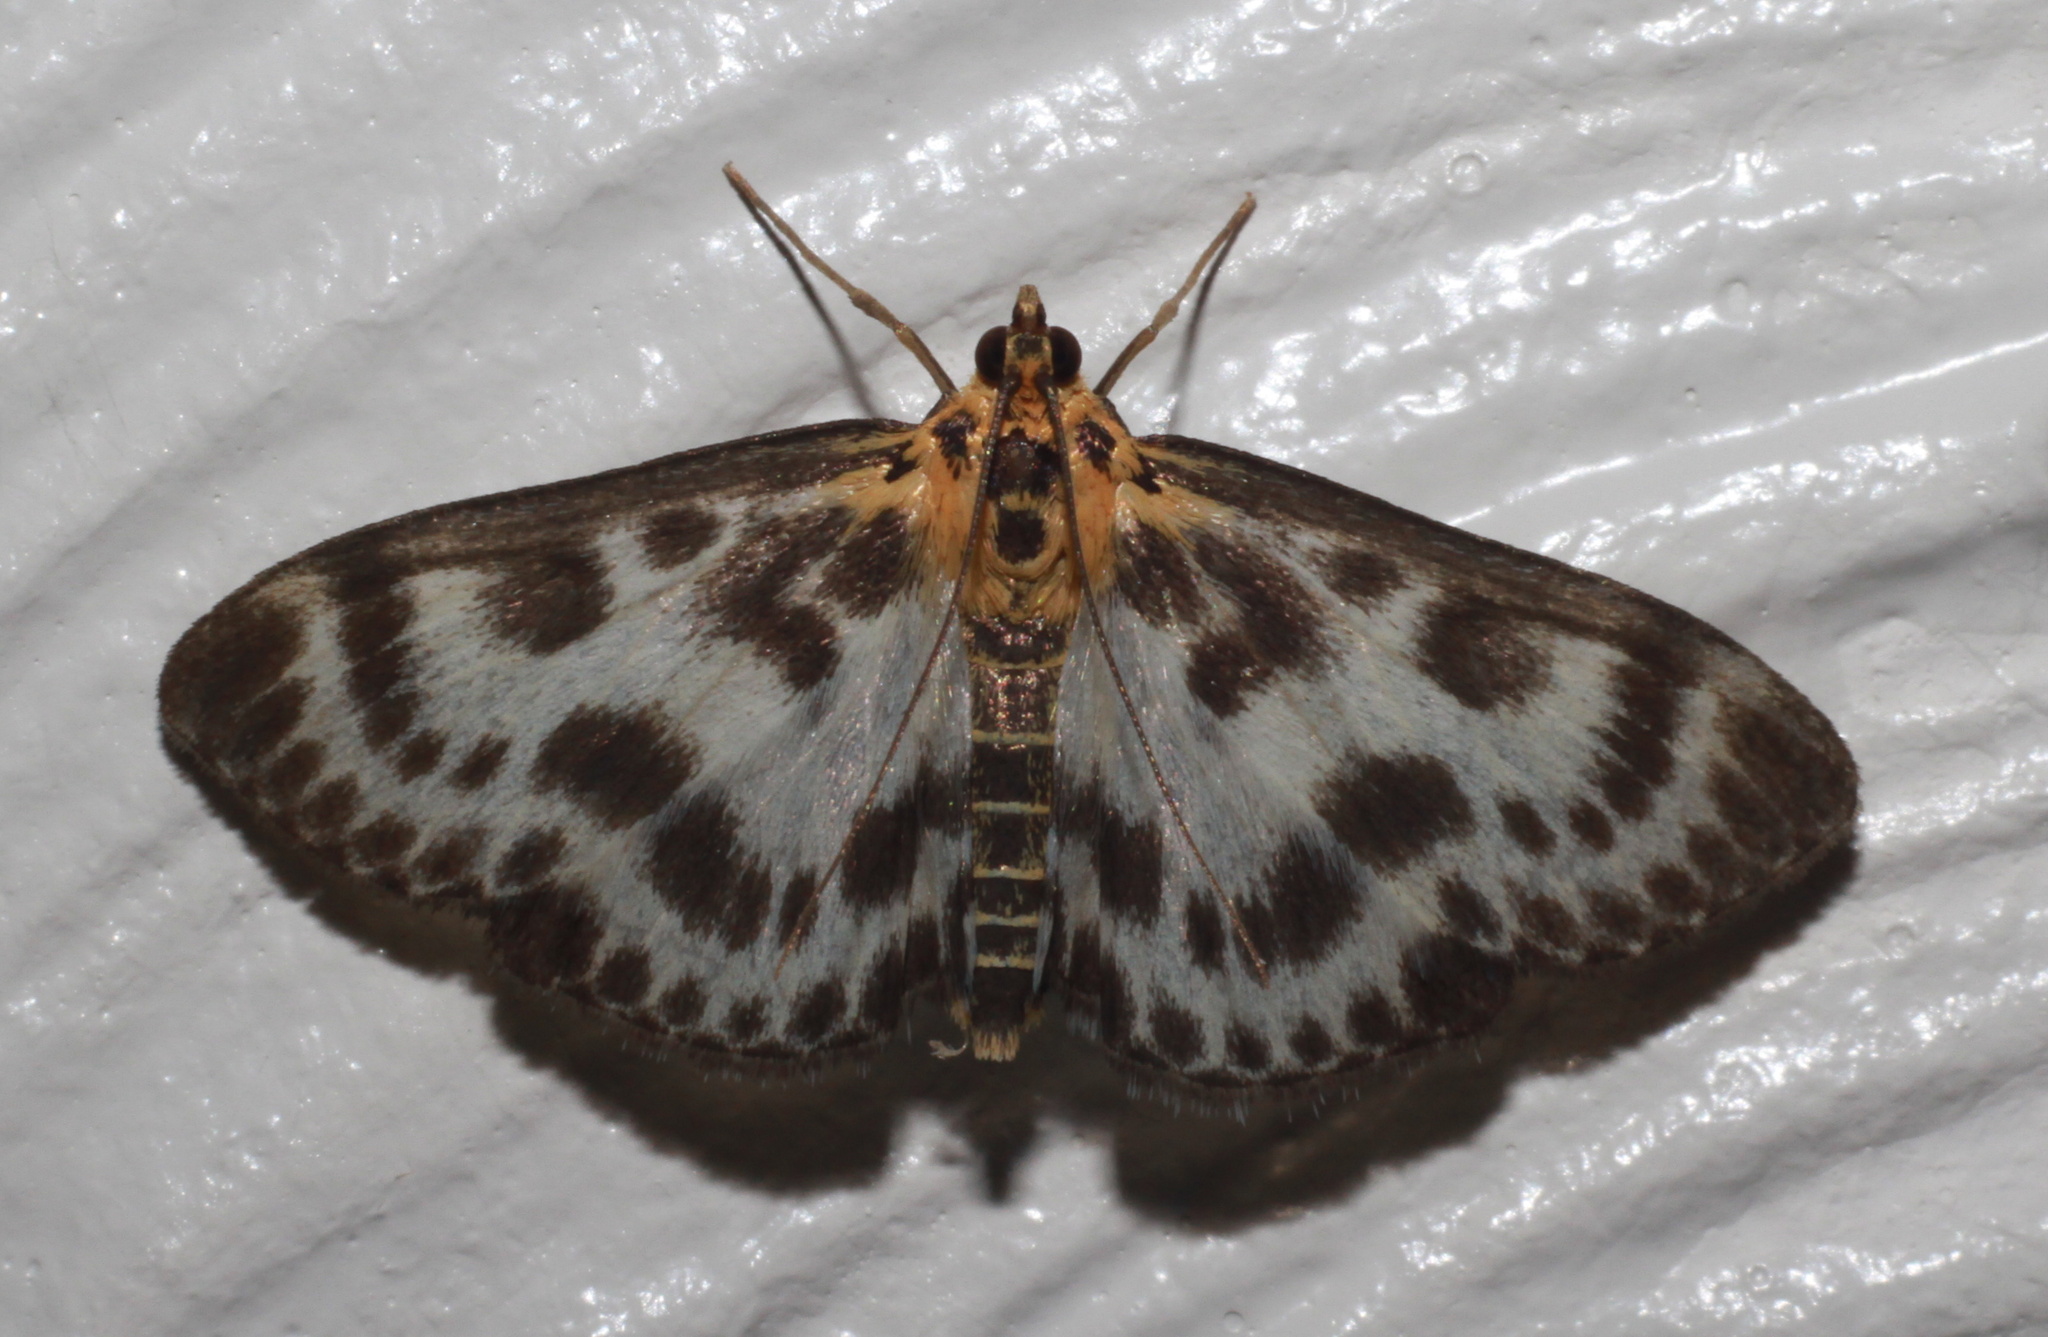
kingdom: Animalia
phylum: Arthropoda
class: Insecta
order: Lepidoptera
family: Crambidae
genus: Anania
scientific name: Anania hortulata
